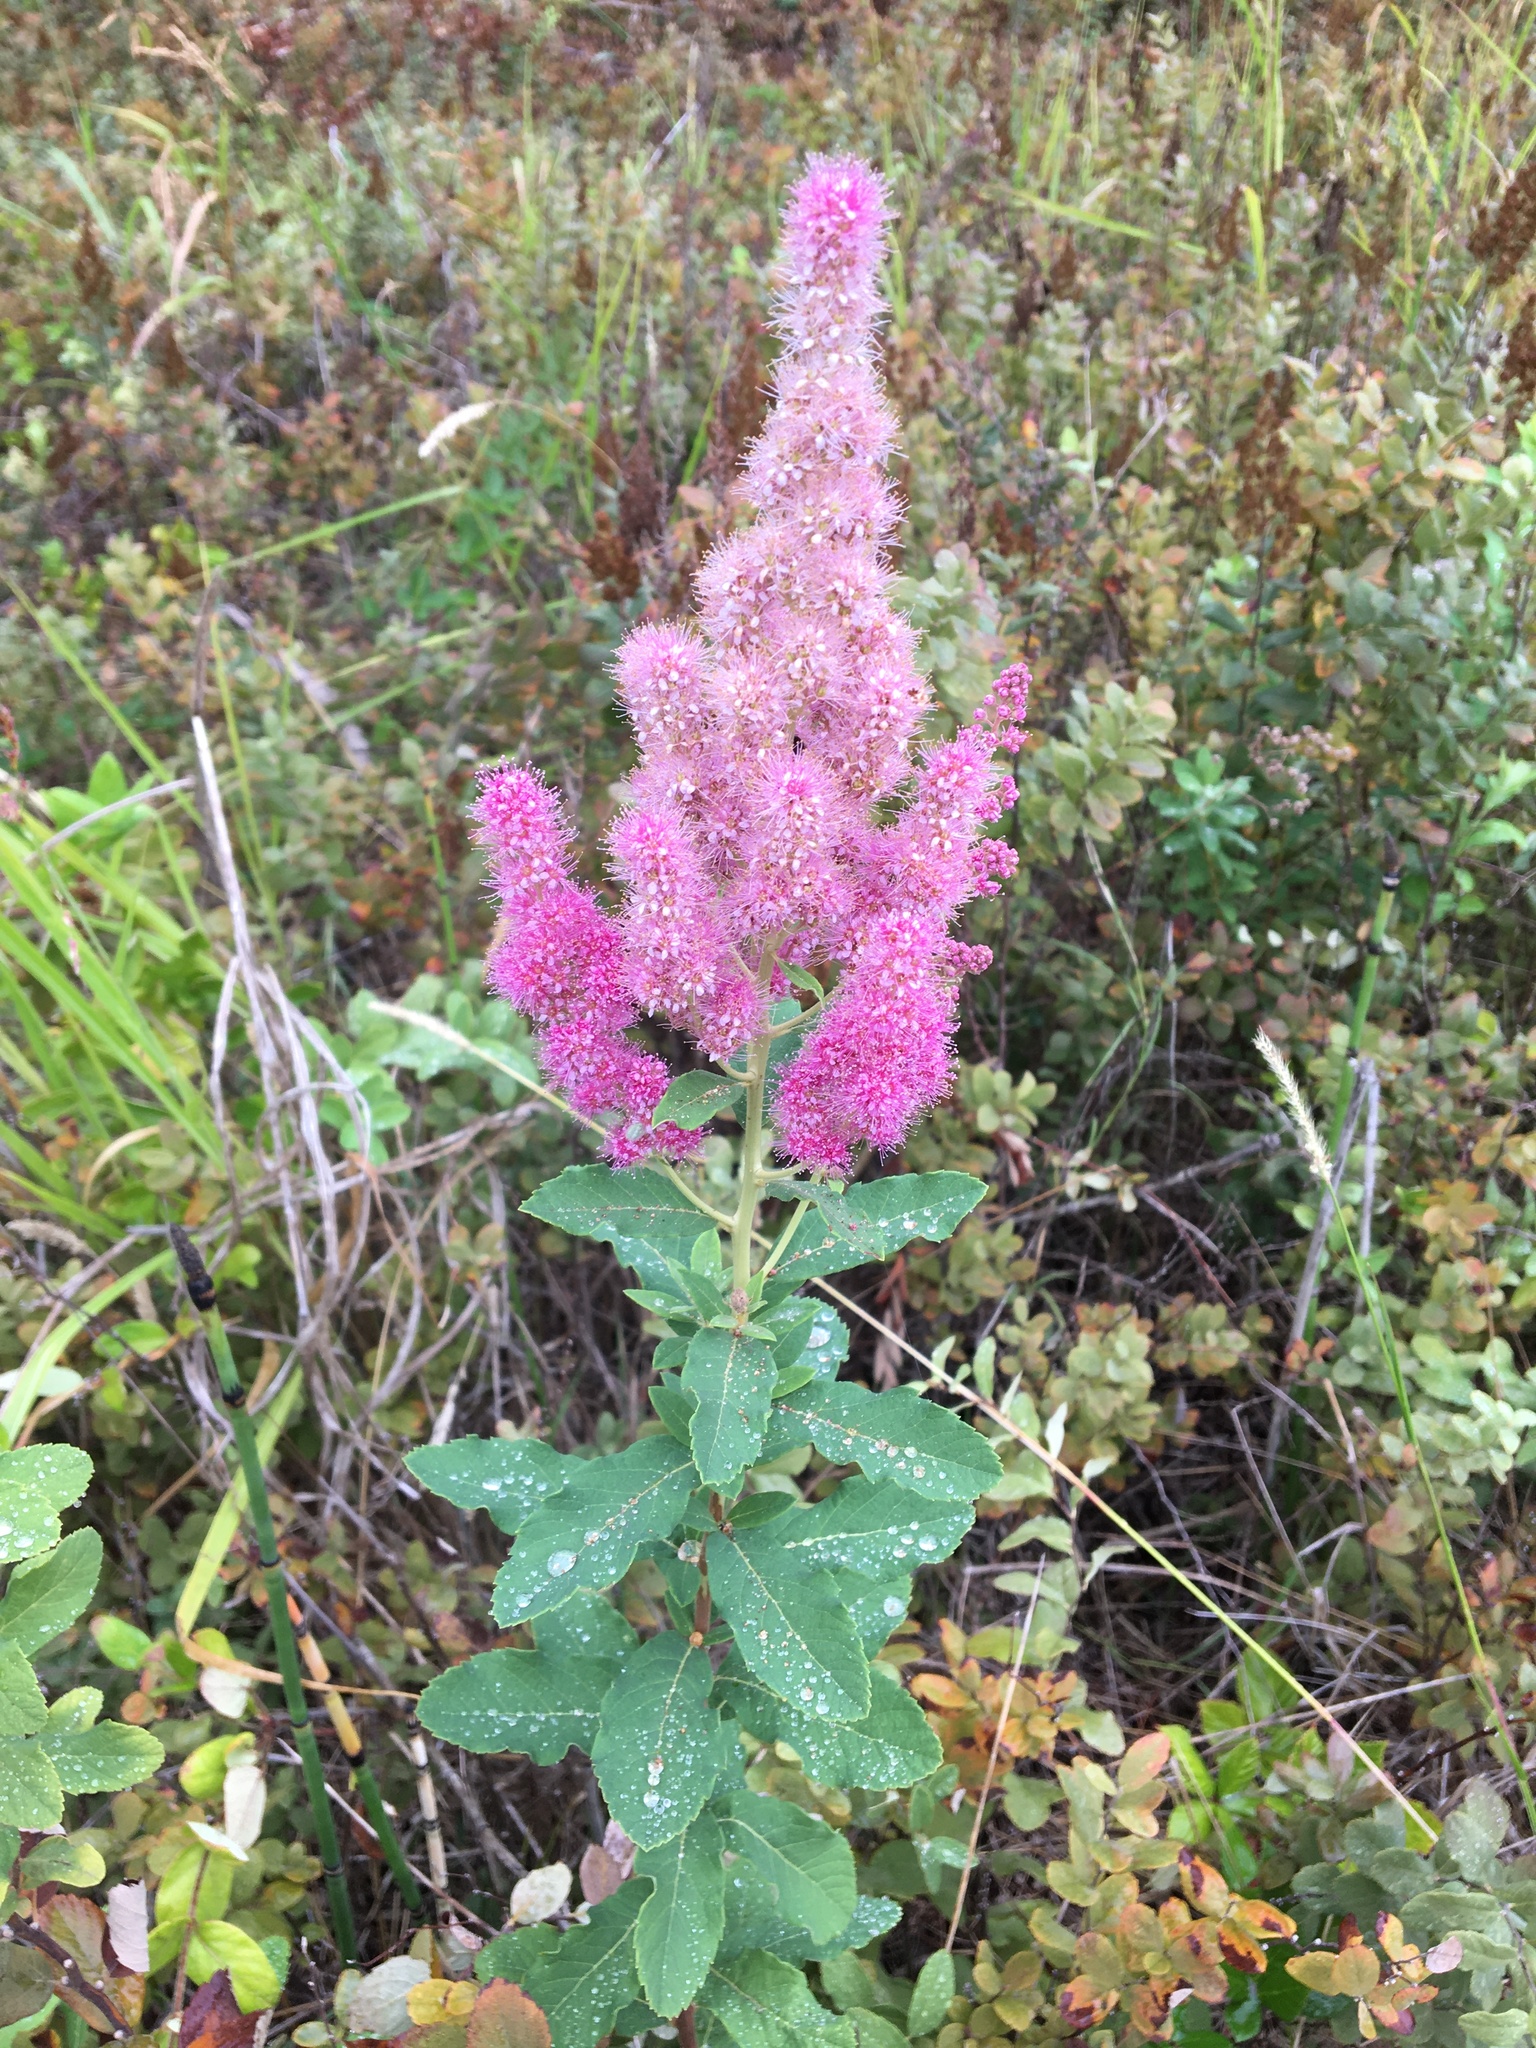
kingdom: Plantae
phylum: Tracheophyta
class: Magnoliopsida
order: Rosales
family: Rosaceae
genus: Spiraea
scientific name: Spiraea douglasii
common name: Steeplebush
